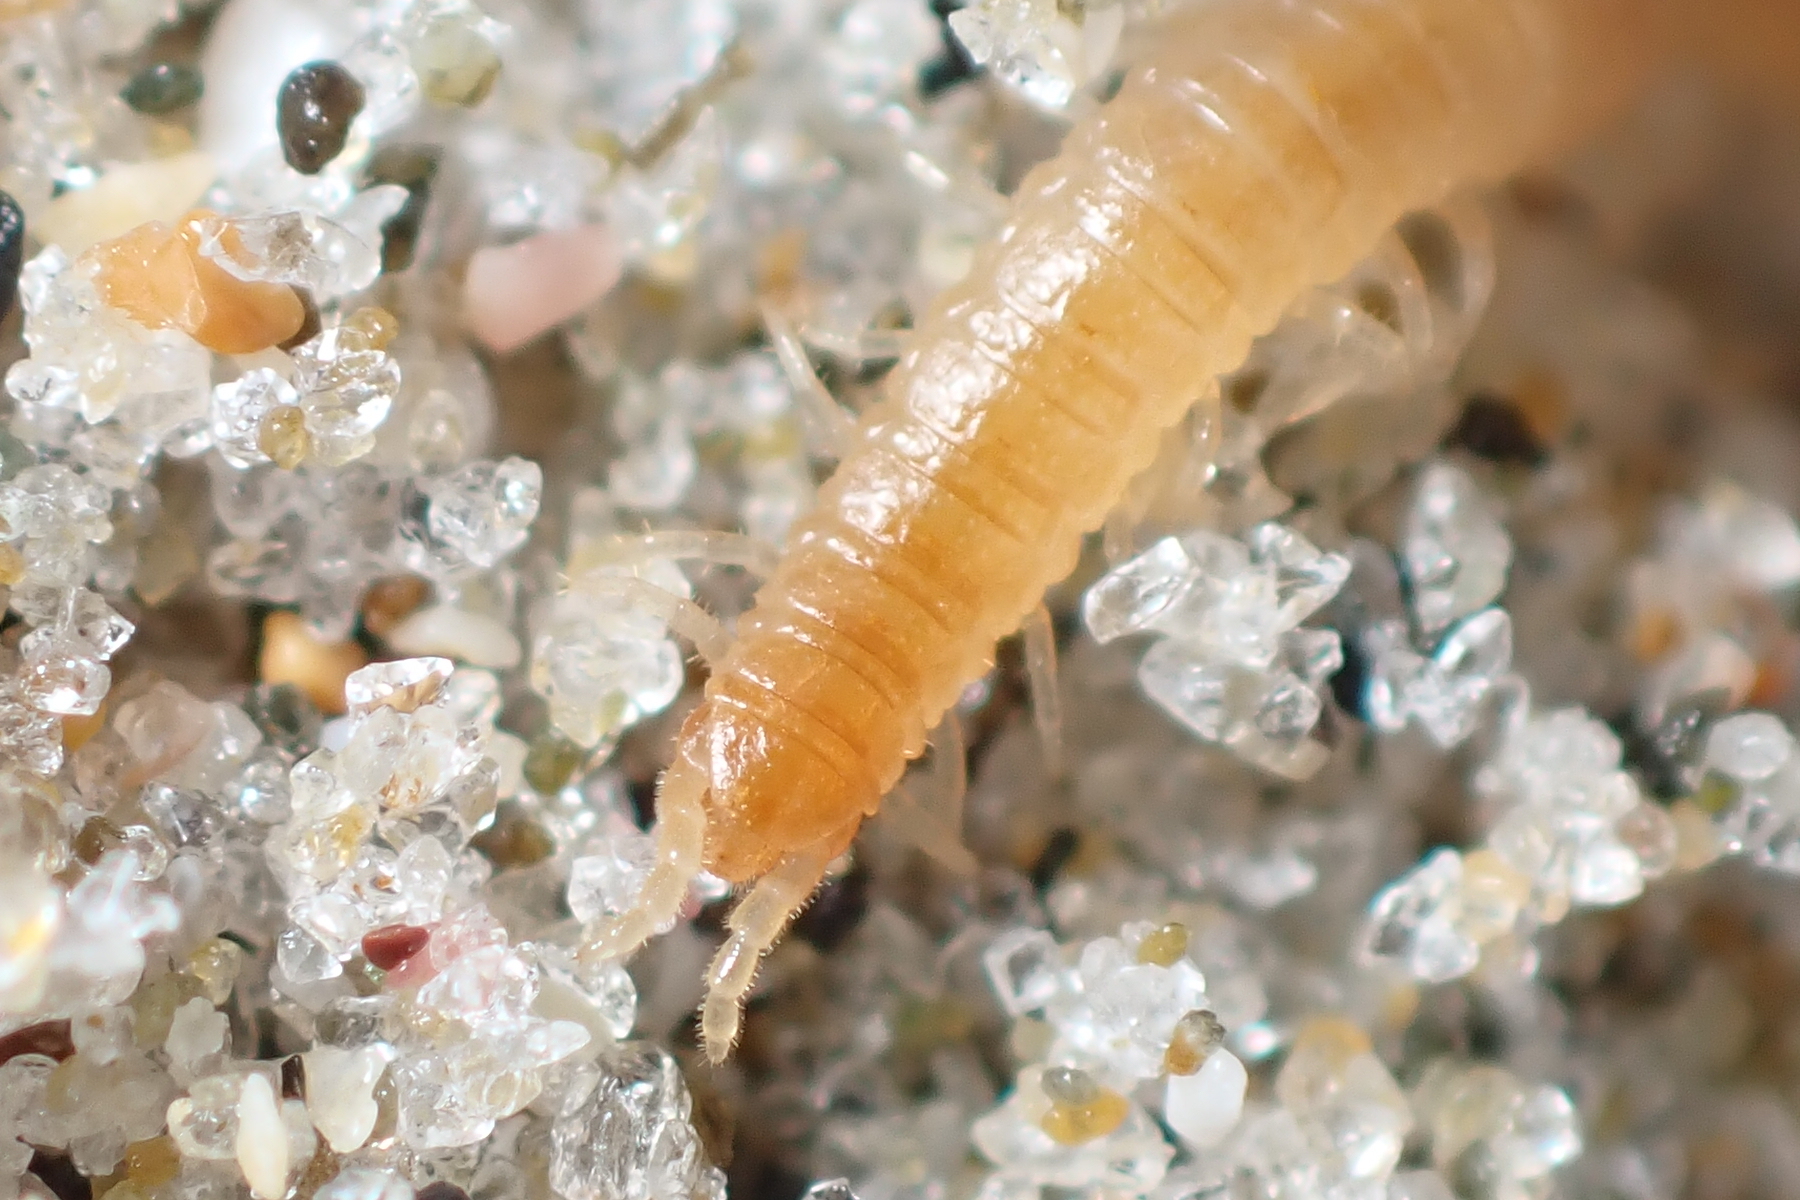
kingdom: Animalia
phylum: Arthropoda
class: Chilopoda
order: Geophilomorpha
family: Geophilidae
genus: Tuoba
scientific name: Tuoba xylophaga
